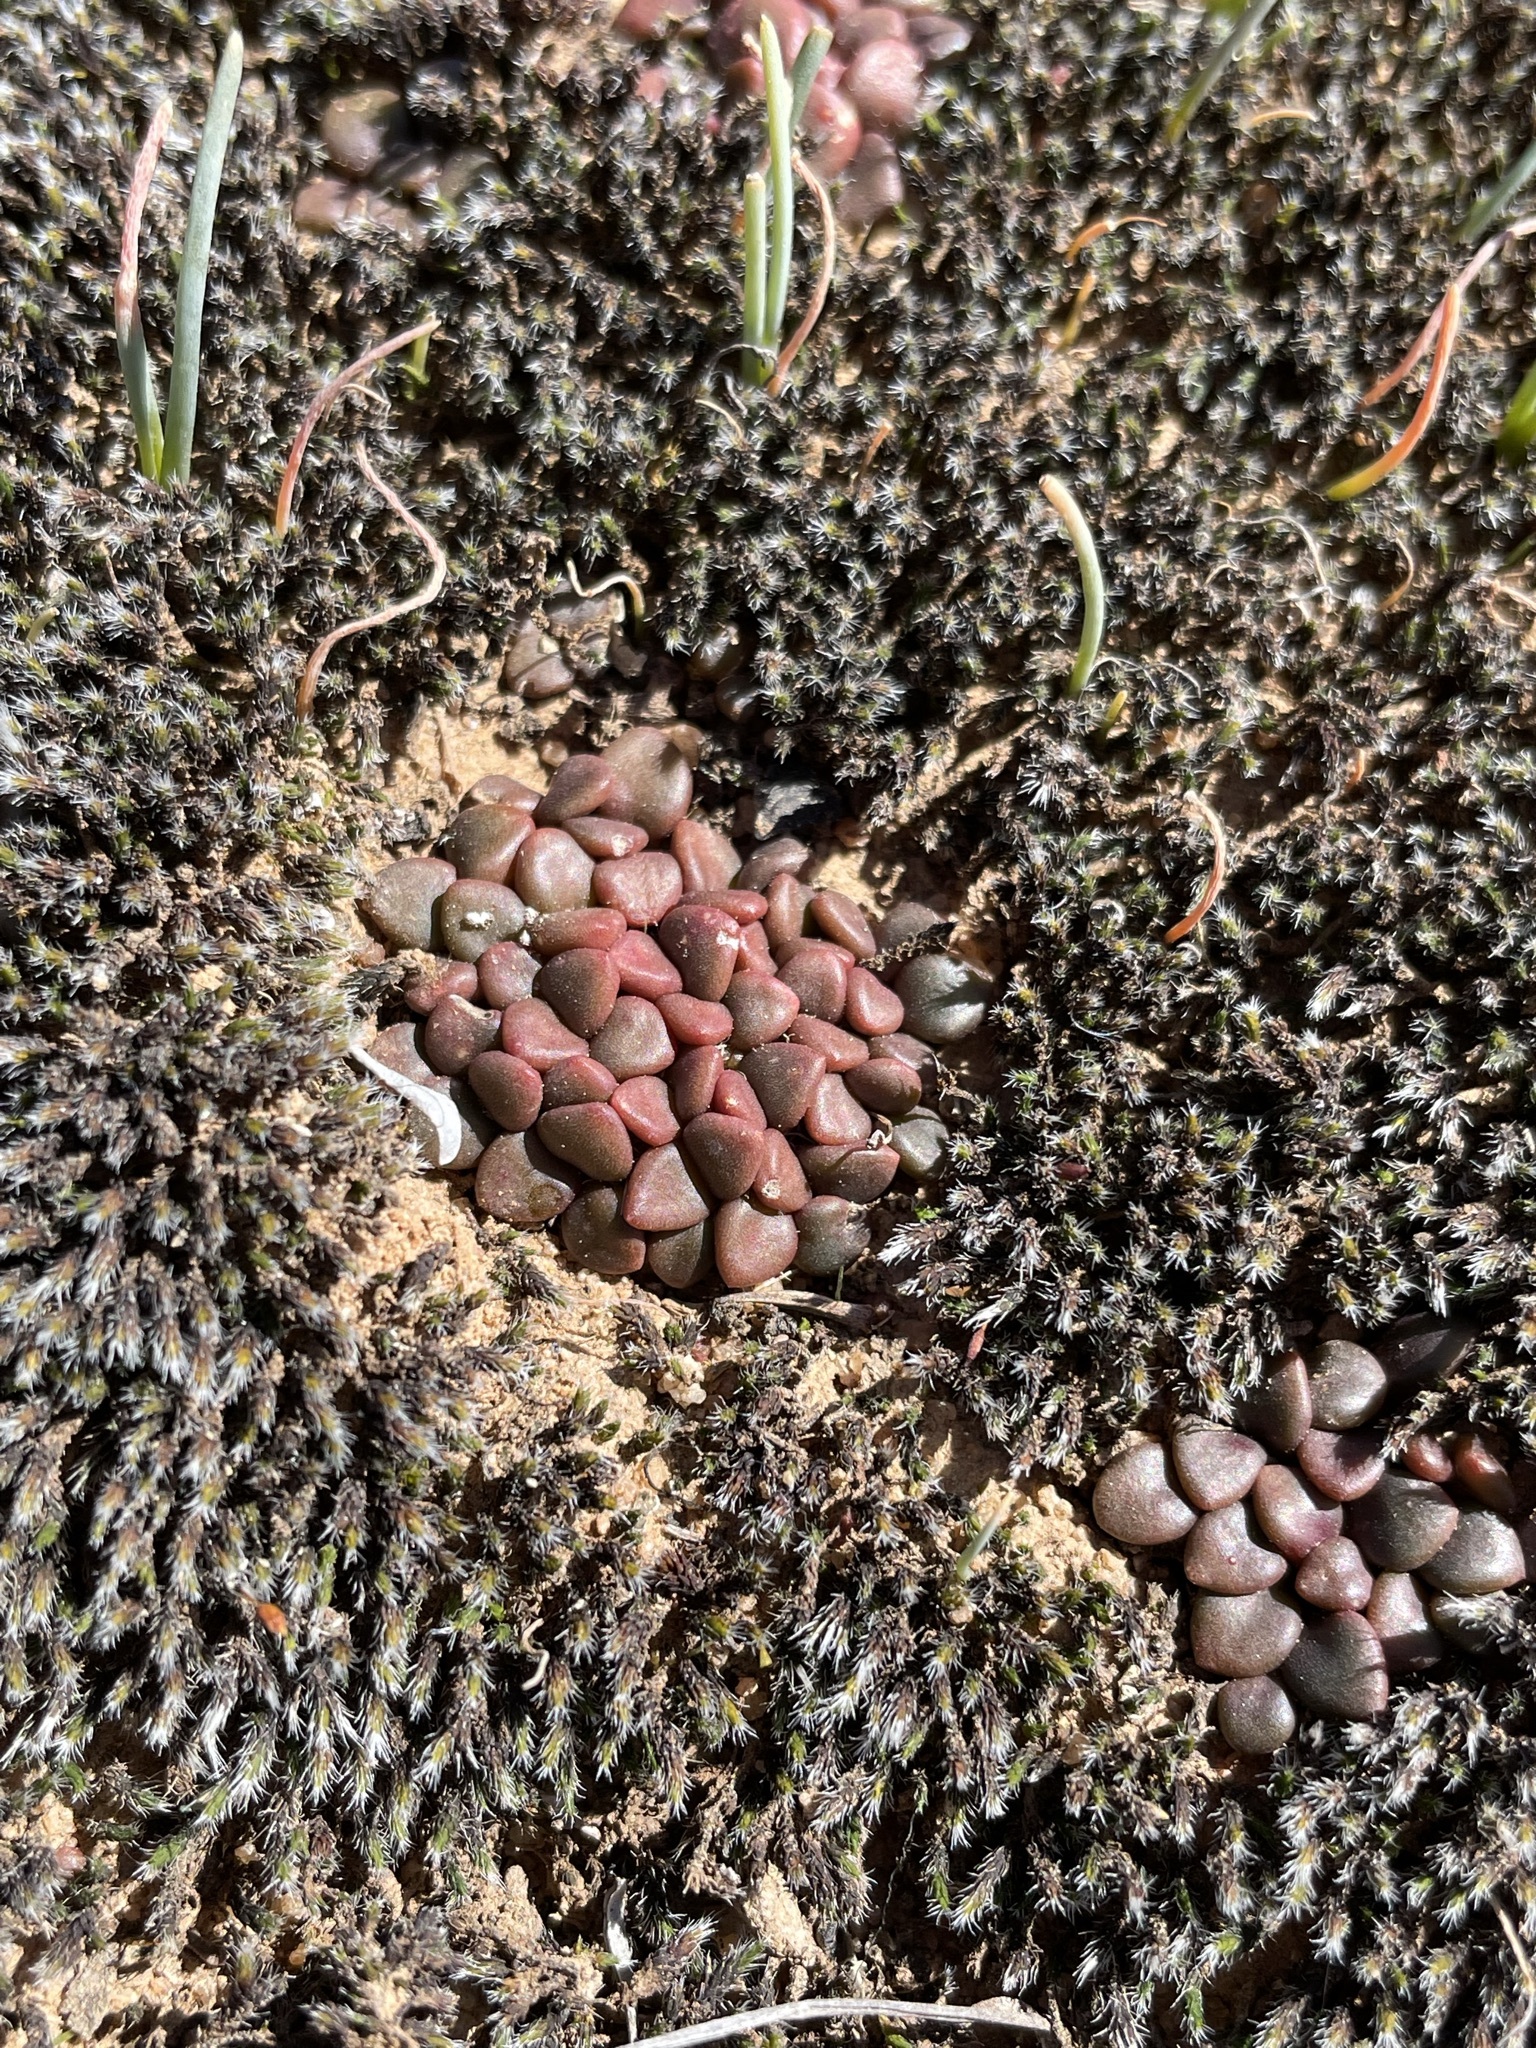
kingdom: Plantae
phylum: Tracheophyta
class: Magnoliopsida
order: Caryophyllales
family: Anacampserotaceae
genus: Anacampseros
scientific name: Anacampseros comptonii
